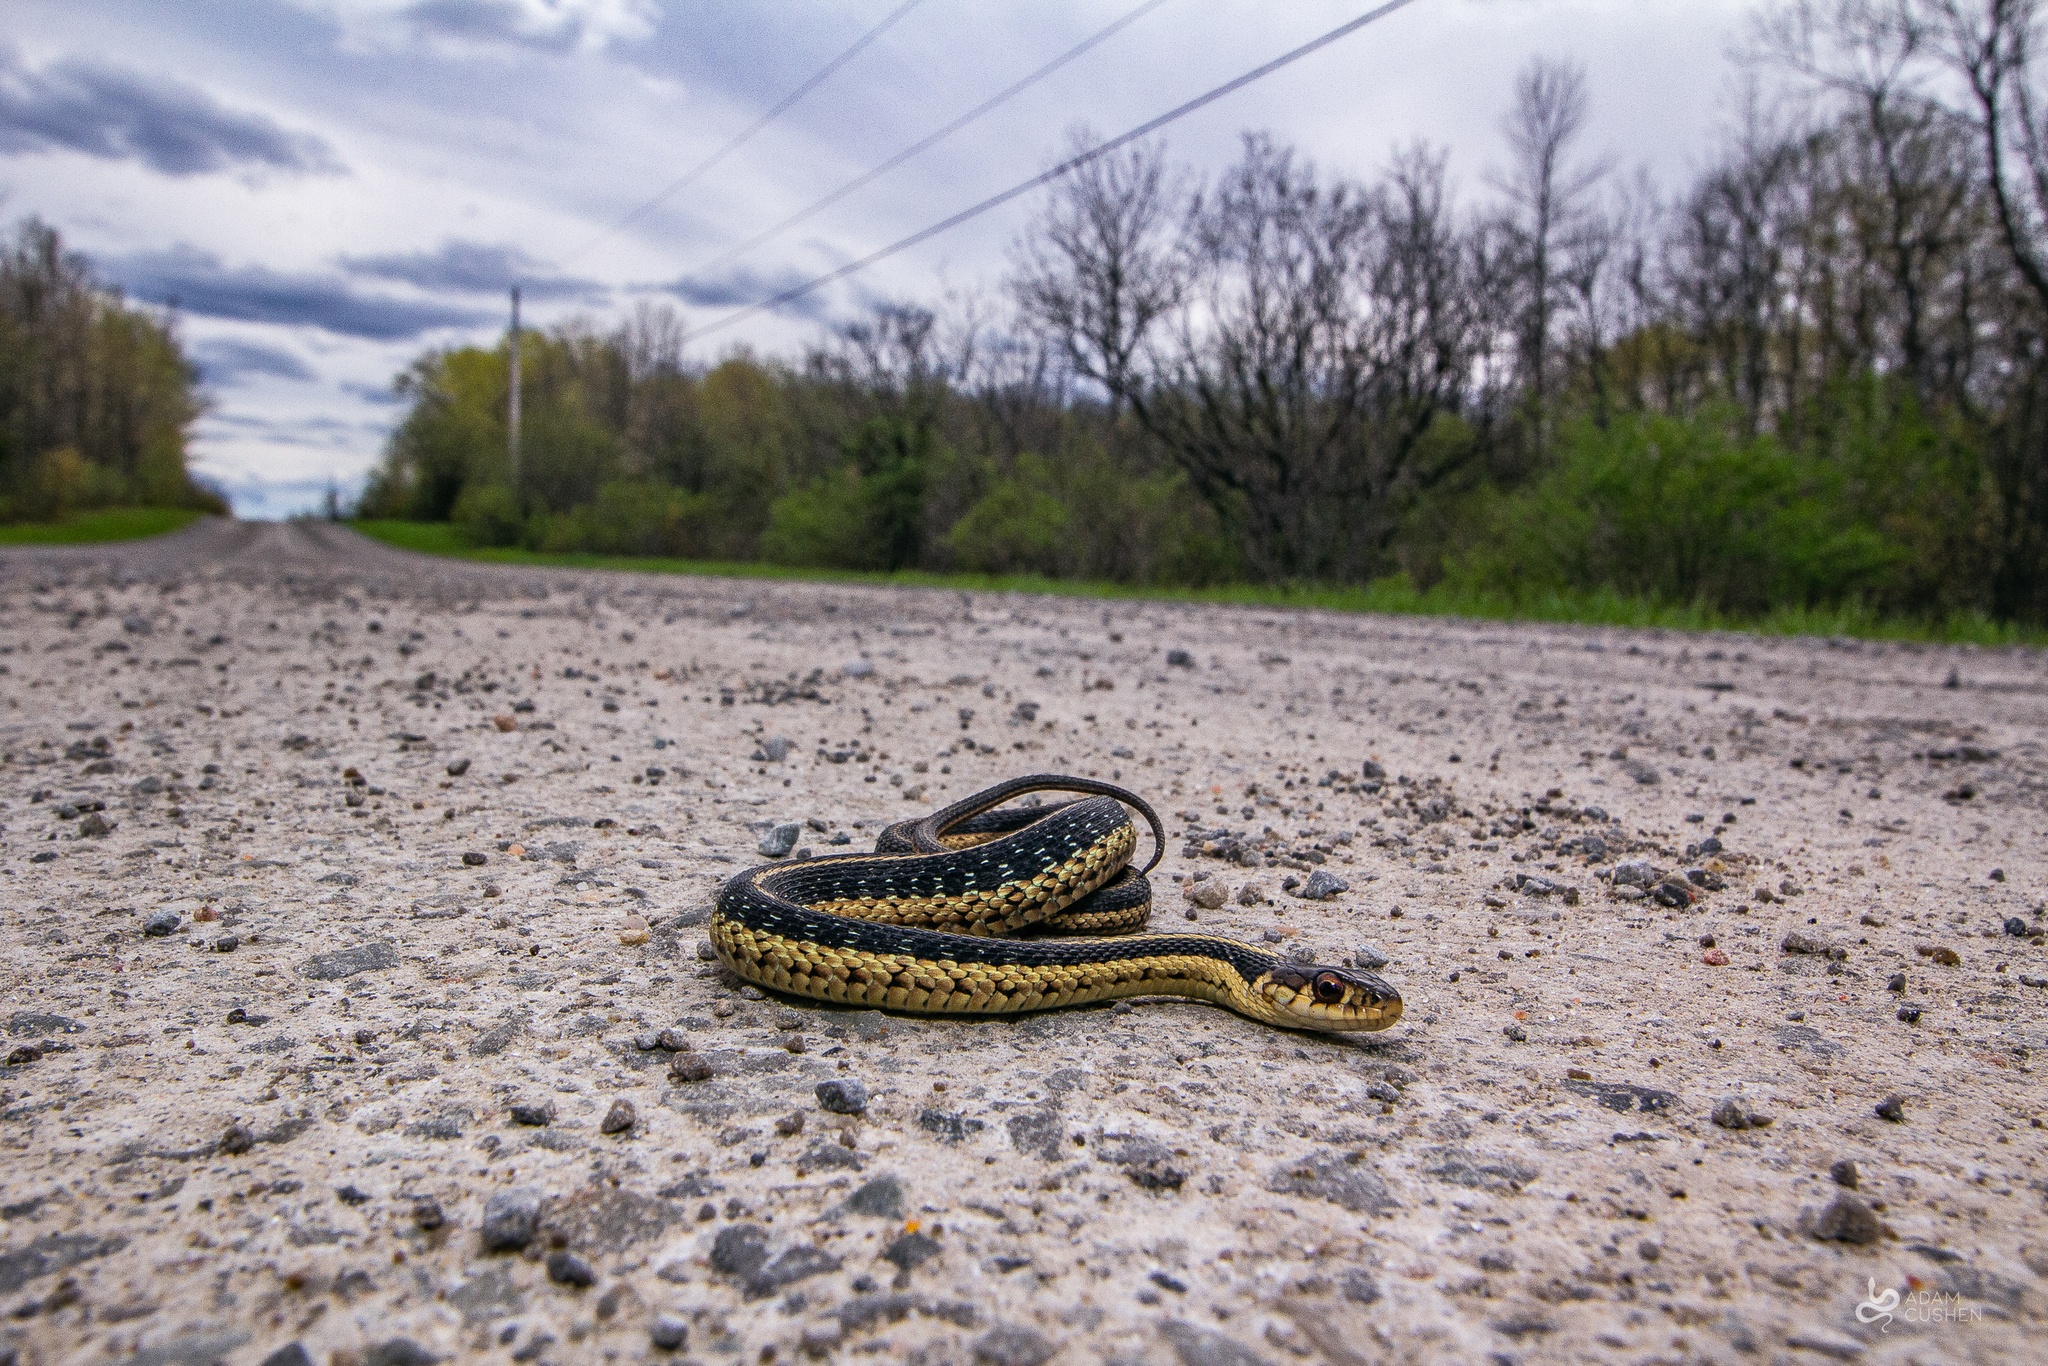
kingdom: Animalia
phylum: Chordata
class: Squamata
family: Colubridae
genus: Thamnophis
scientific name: Thamnophis sirtalis
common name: Common garter snake
